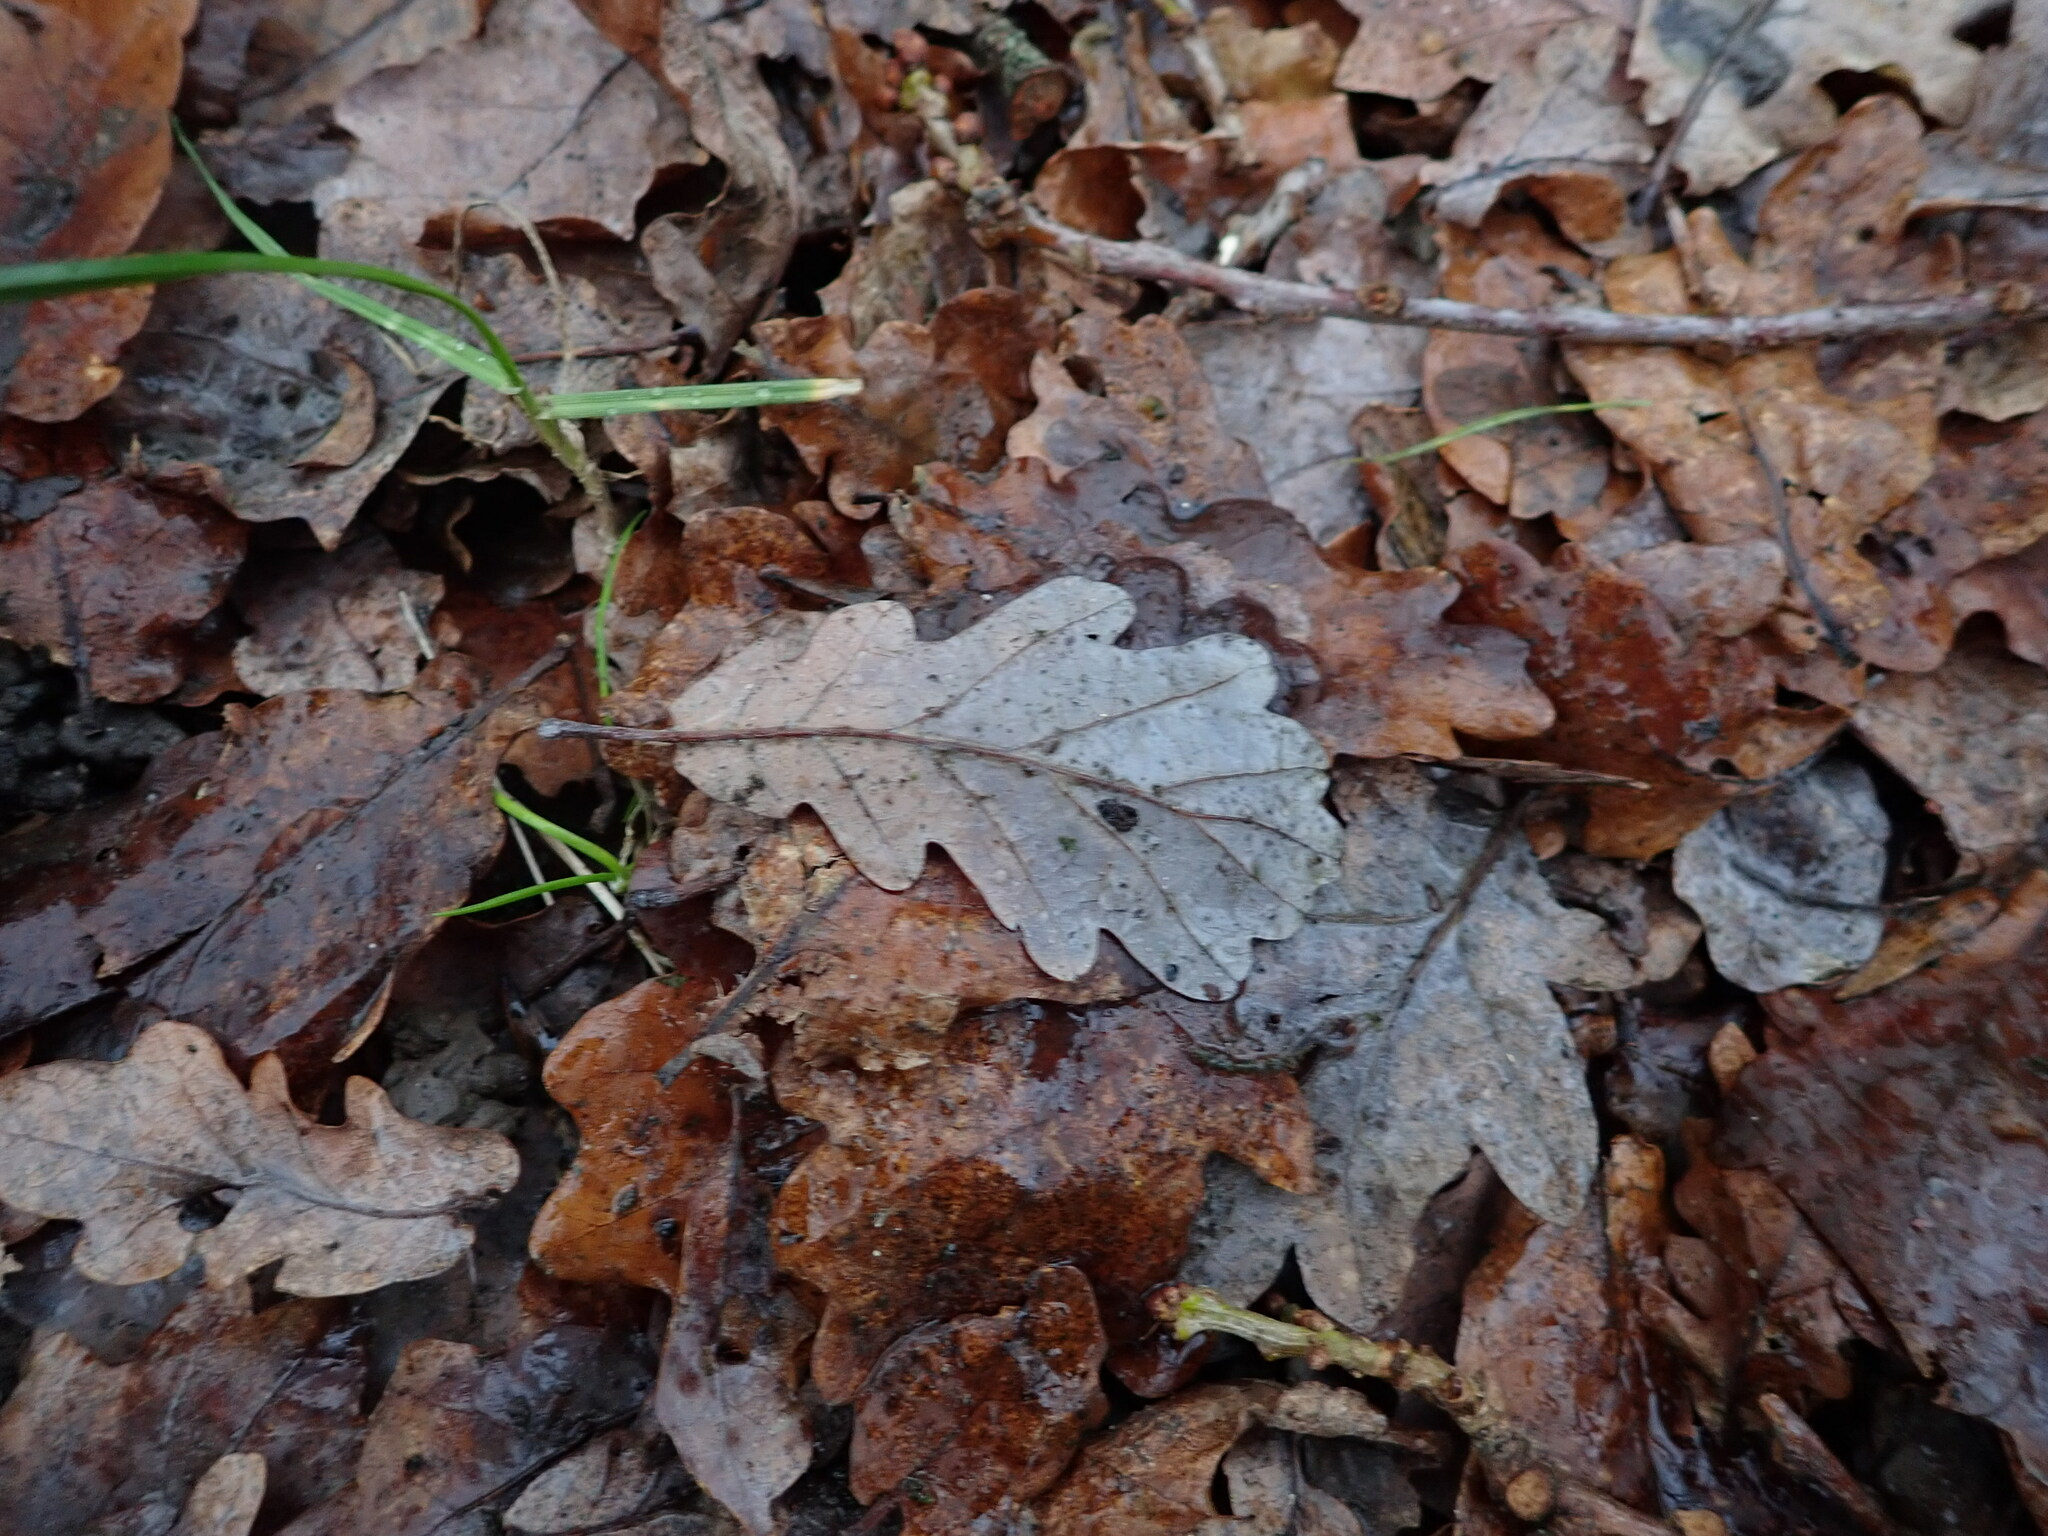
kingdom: Plantae
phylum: Tracheophyta
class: Magnoliopsida
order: Fagales
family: Fagaceae
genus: Quercus
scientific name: Quercus robur
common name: Pedunculate oak
